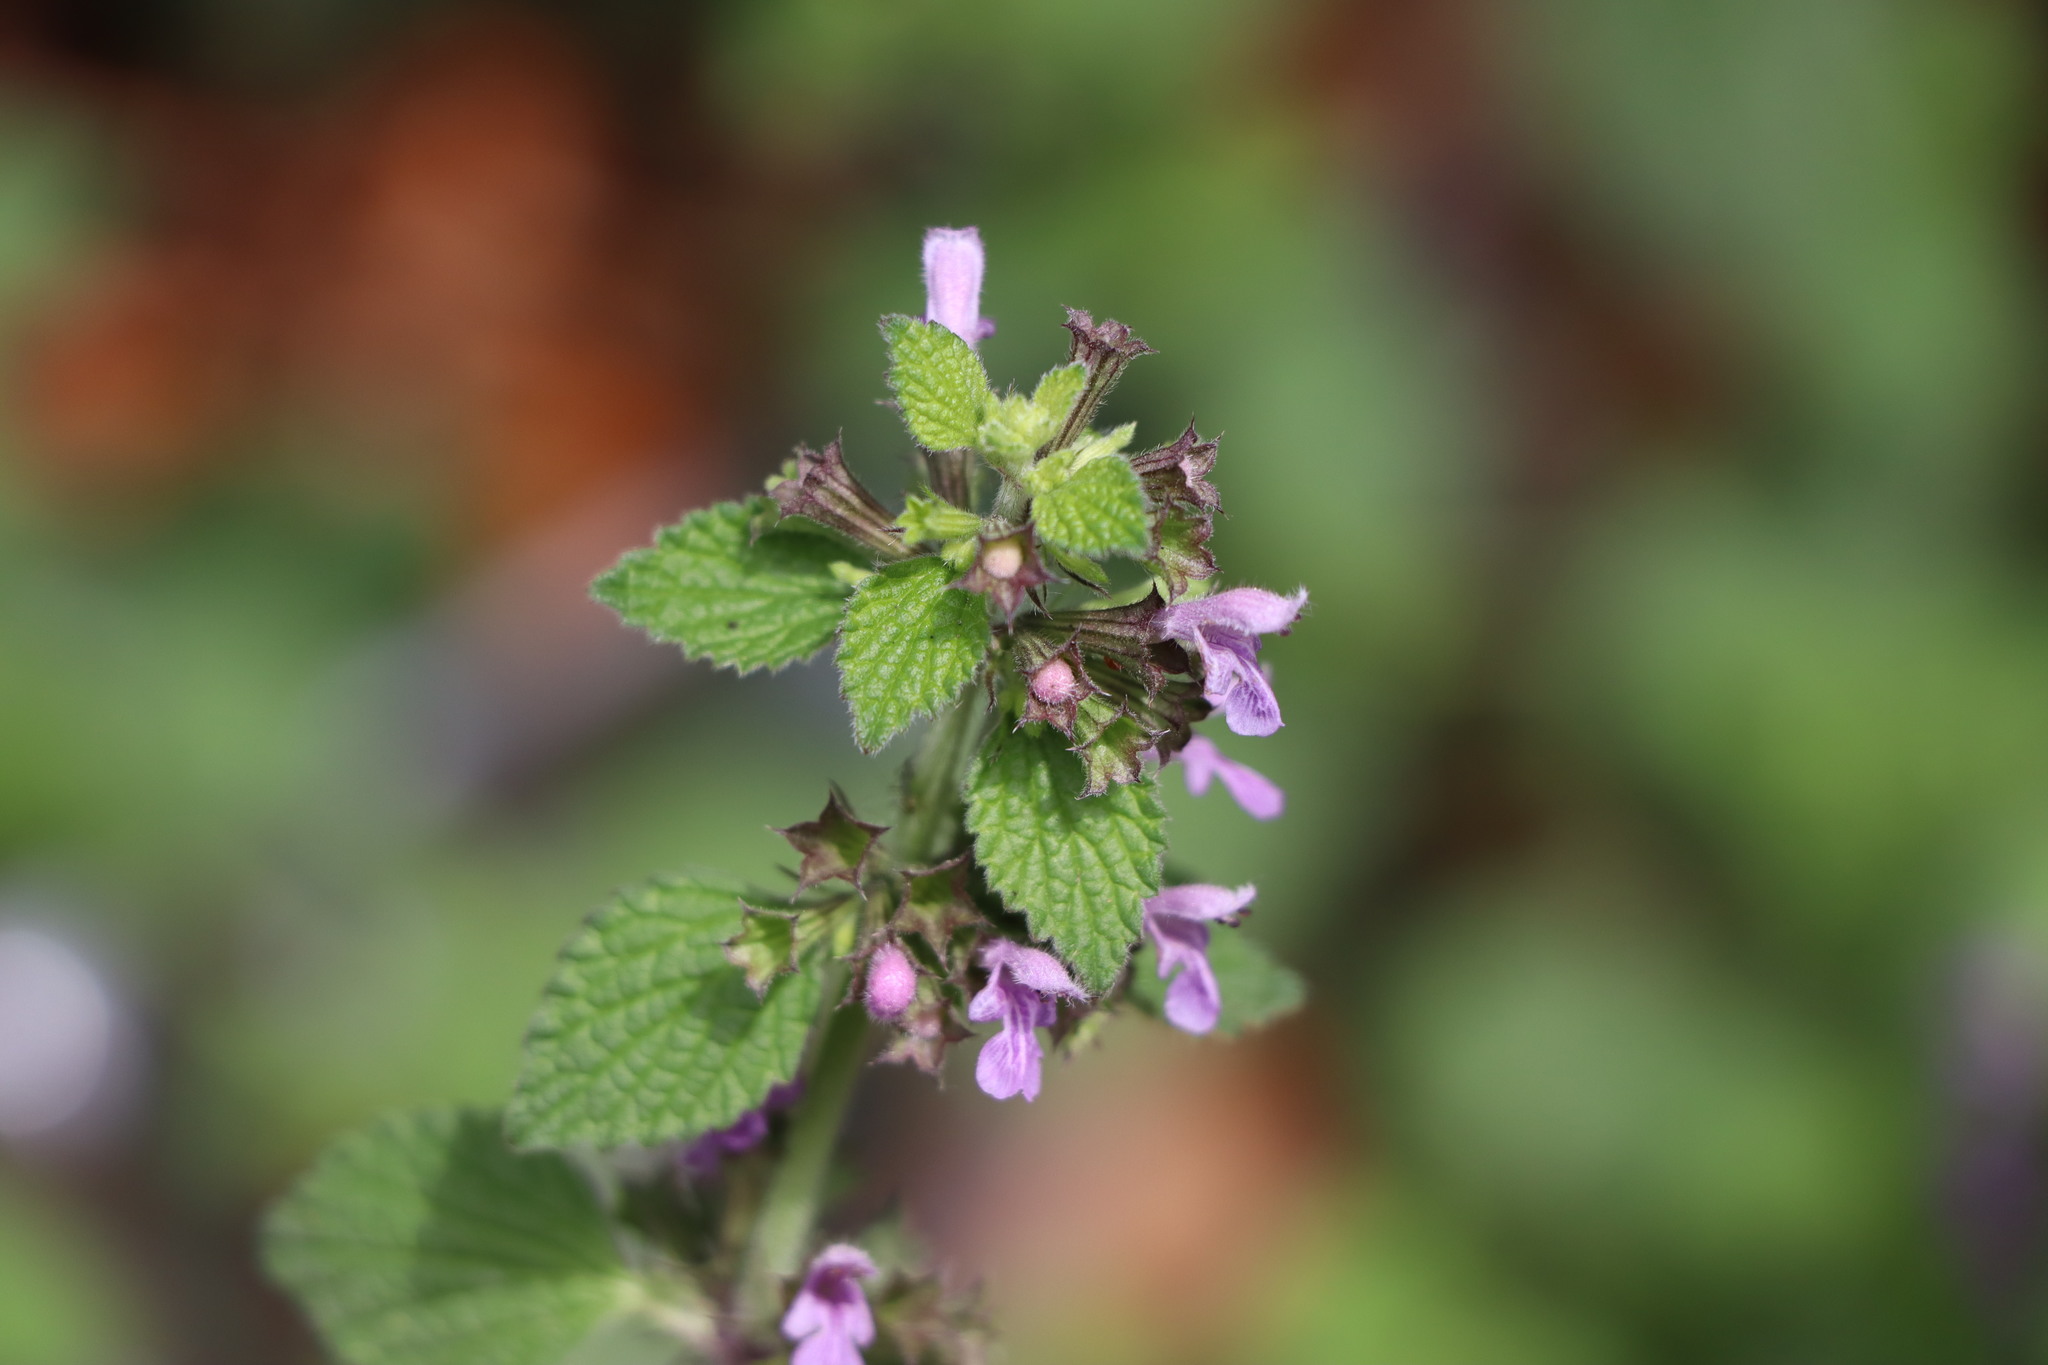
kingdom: Plantae
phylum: Tracheophyta
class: Magnoliopsida
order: Lamiales
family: Lamiaceae
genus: Ballota
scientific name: Ballota nigra
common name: Black horehound
